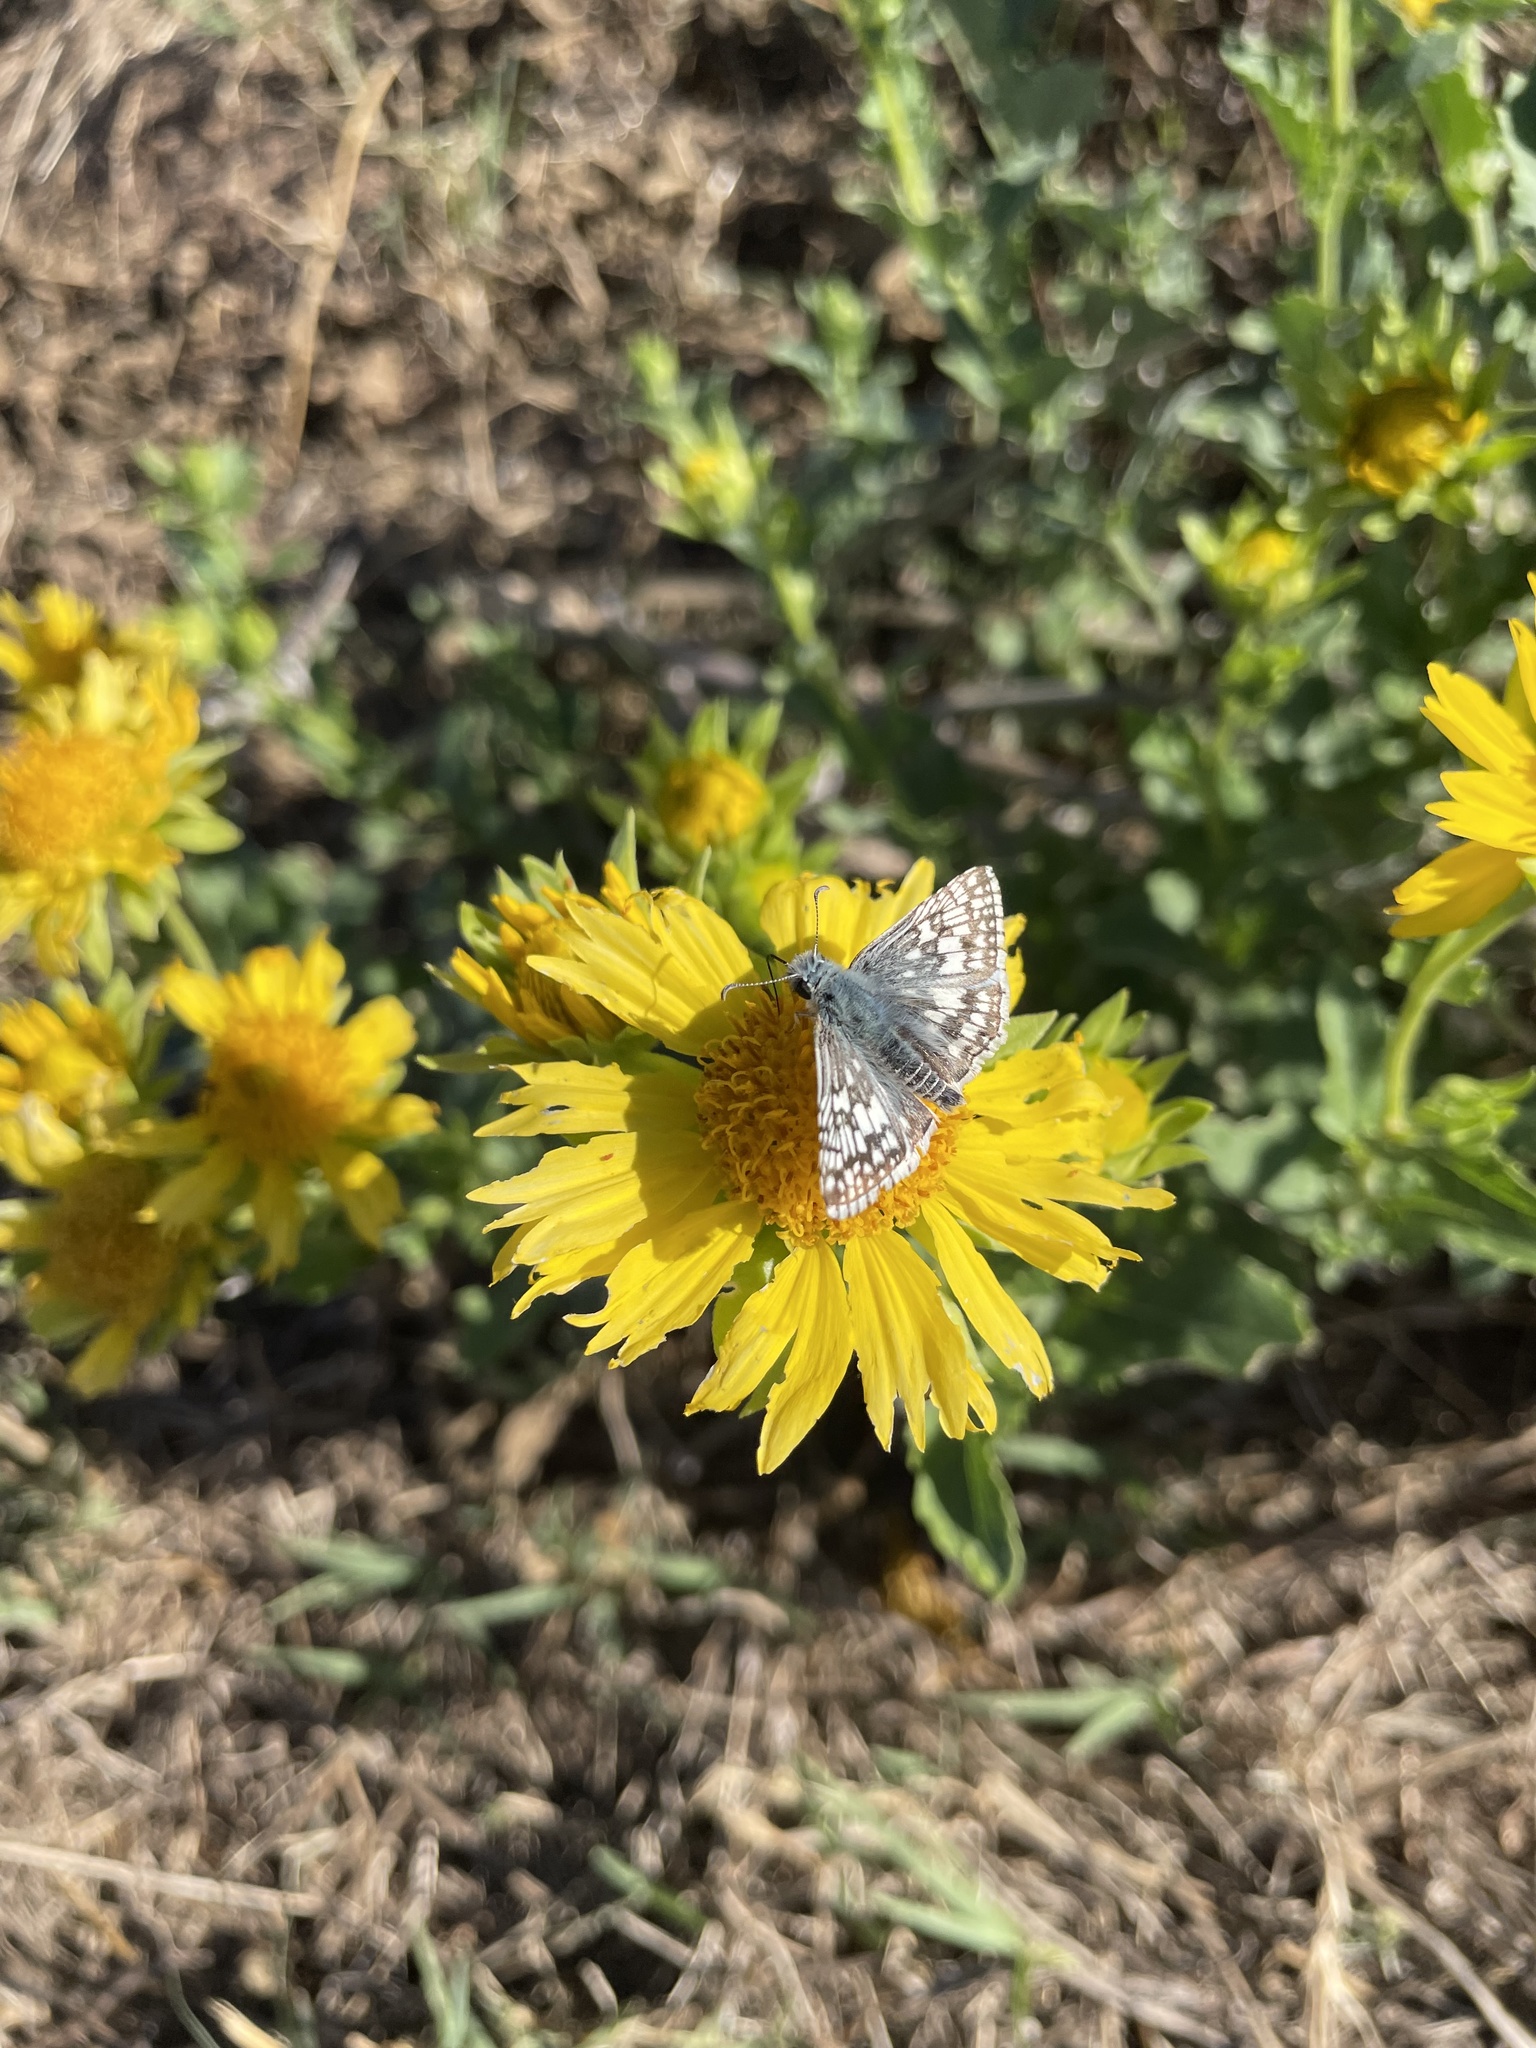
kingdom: Animalia
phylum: Arthropoda
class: Insecta
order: Lepidoptera
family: Hesperiidae
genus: Burnsius
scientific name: Burnsius communis
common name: Common checkered-skipper
